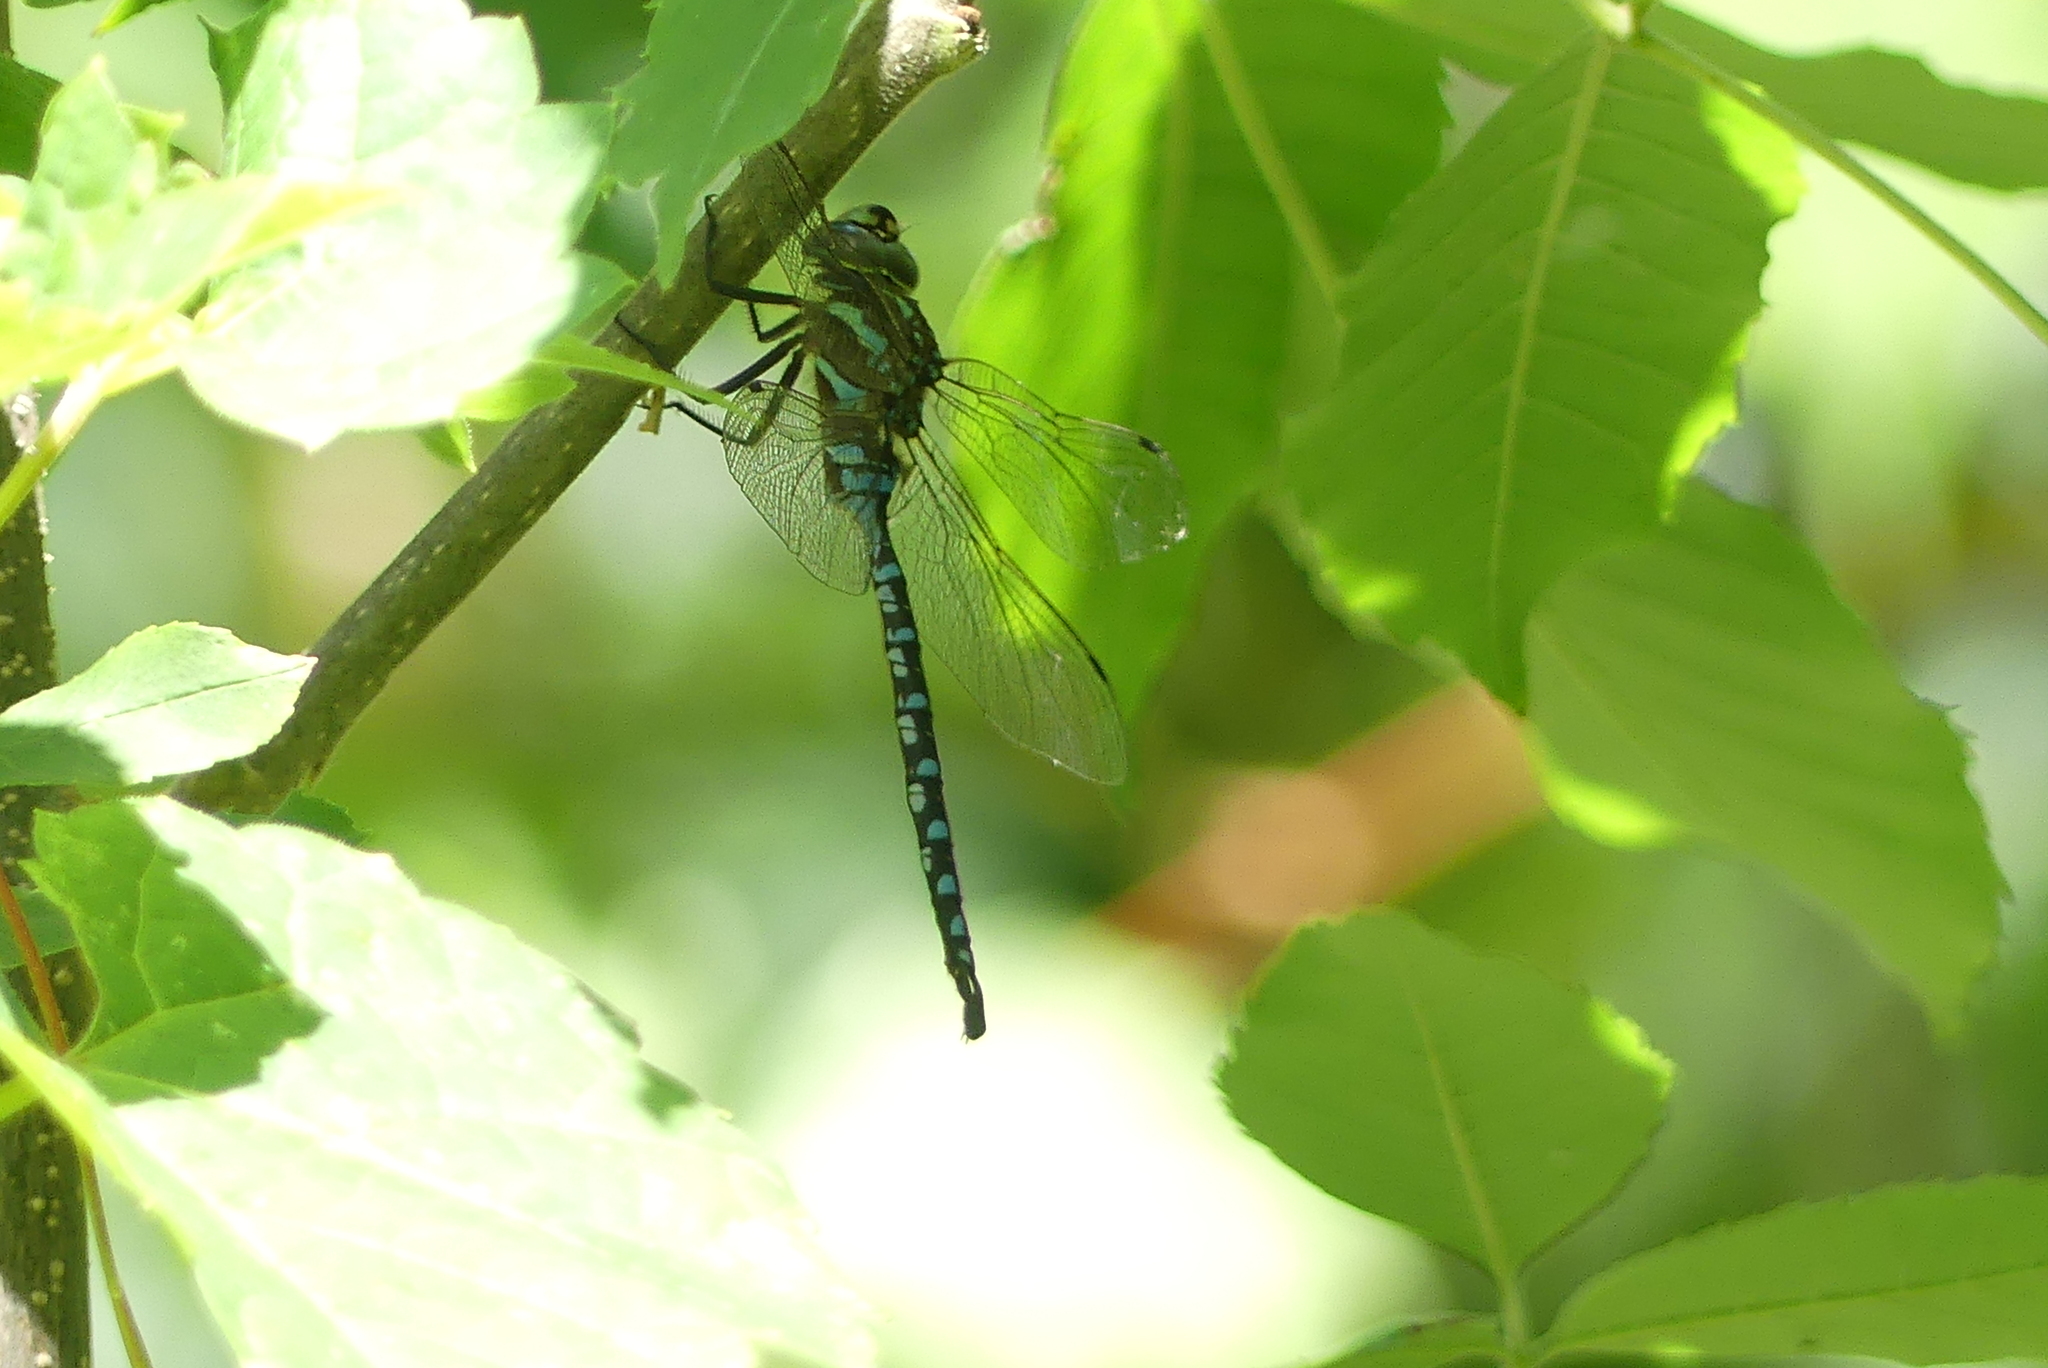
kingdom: Animalia
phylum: Arthropoda
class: Insecta
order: Odonata
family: Aeshnidae
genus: Aeshna
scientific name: Aeshna constricta
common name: Lance-tipped darner
